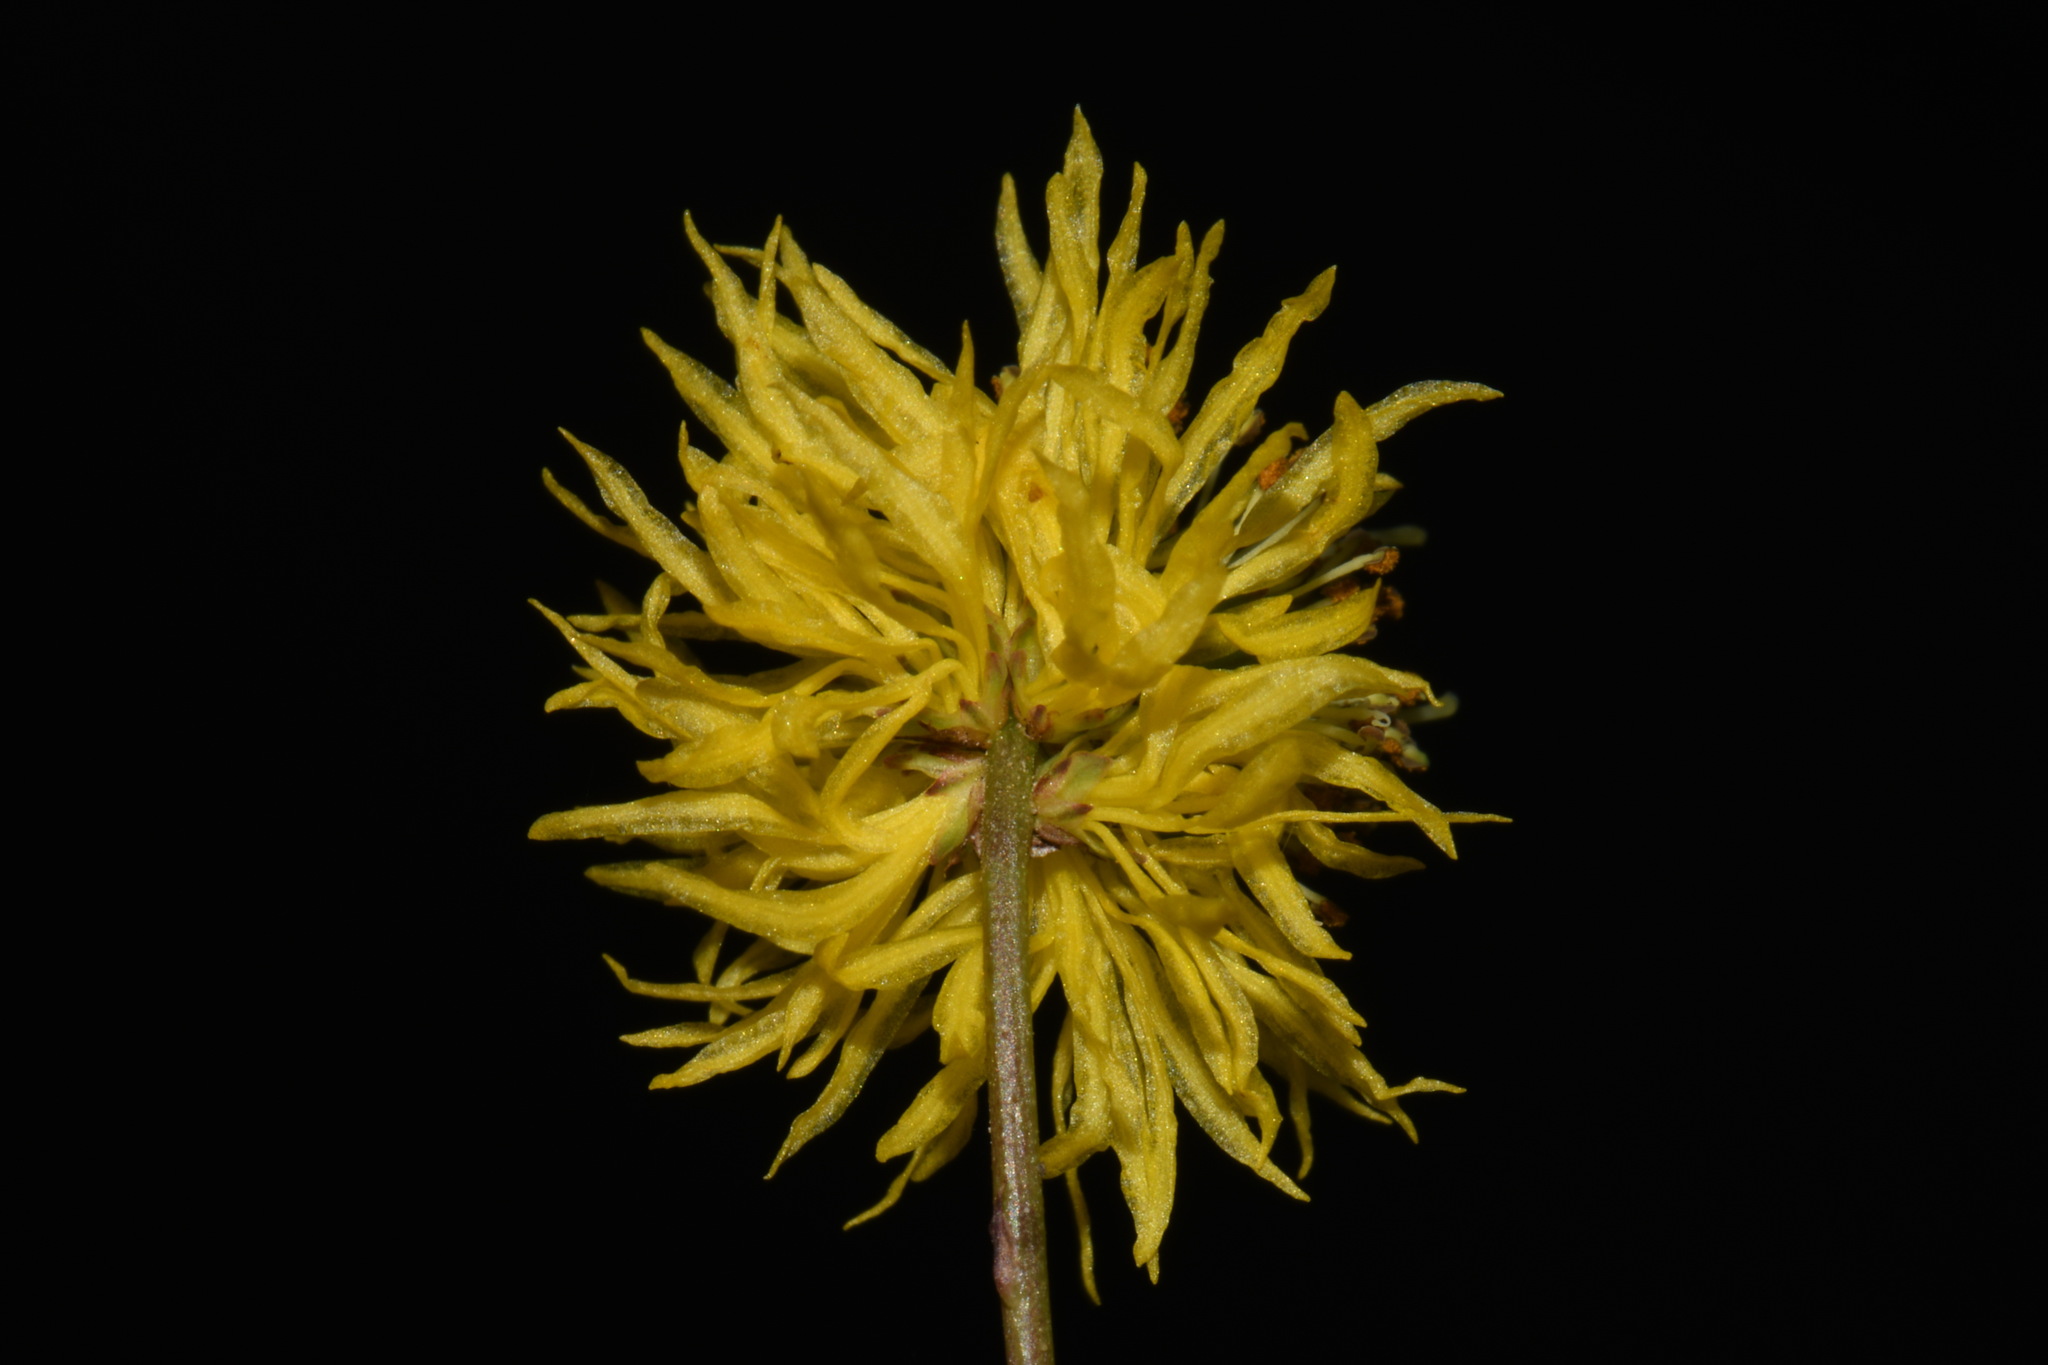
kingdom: Plantae
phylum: Tracheophyta
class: Magnoliopsida
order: Fabales
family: Fabaceae
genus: Neptunia
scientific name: Neptunia pubescens
